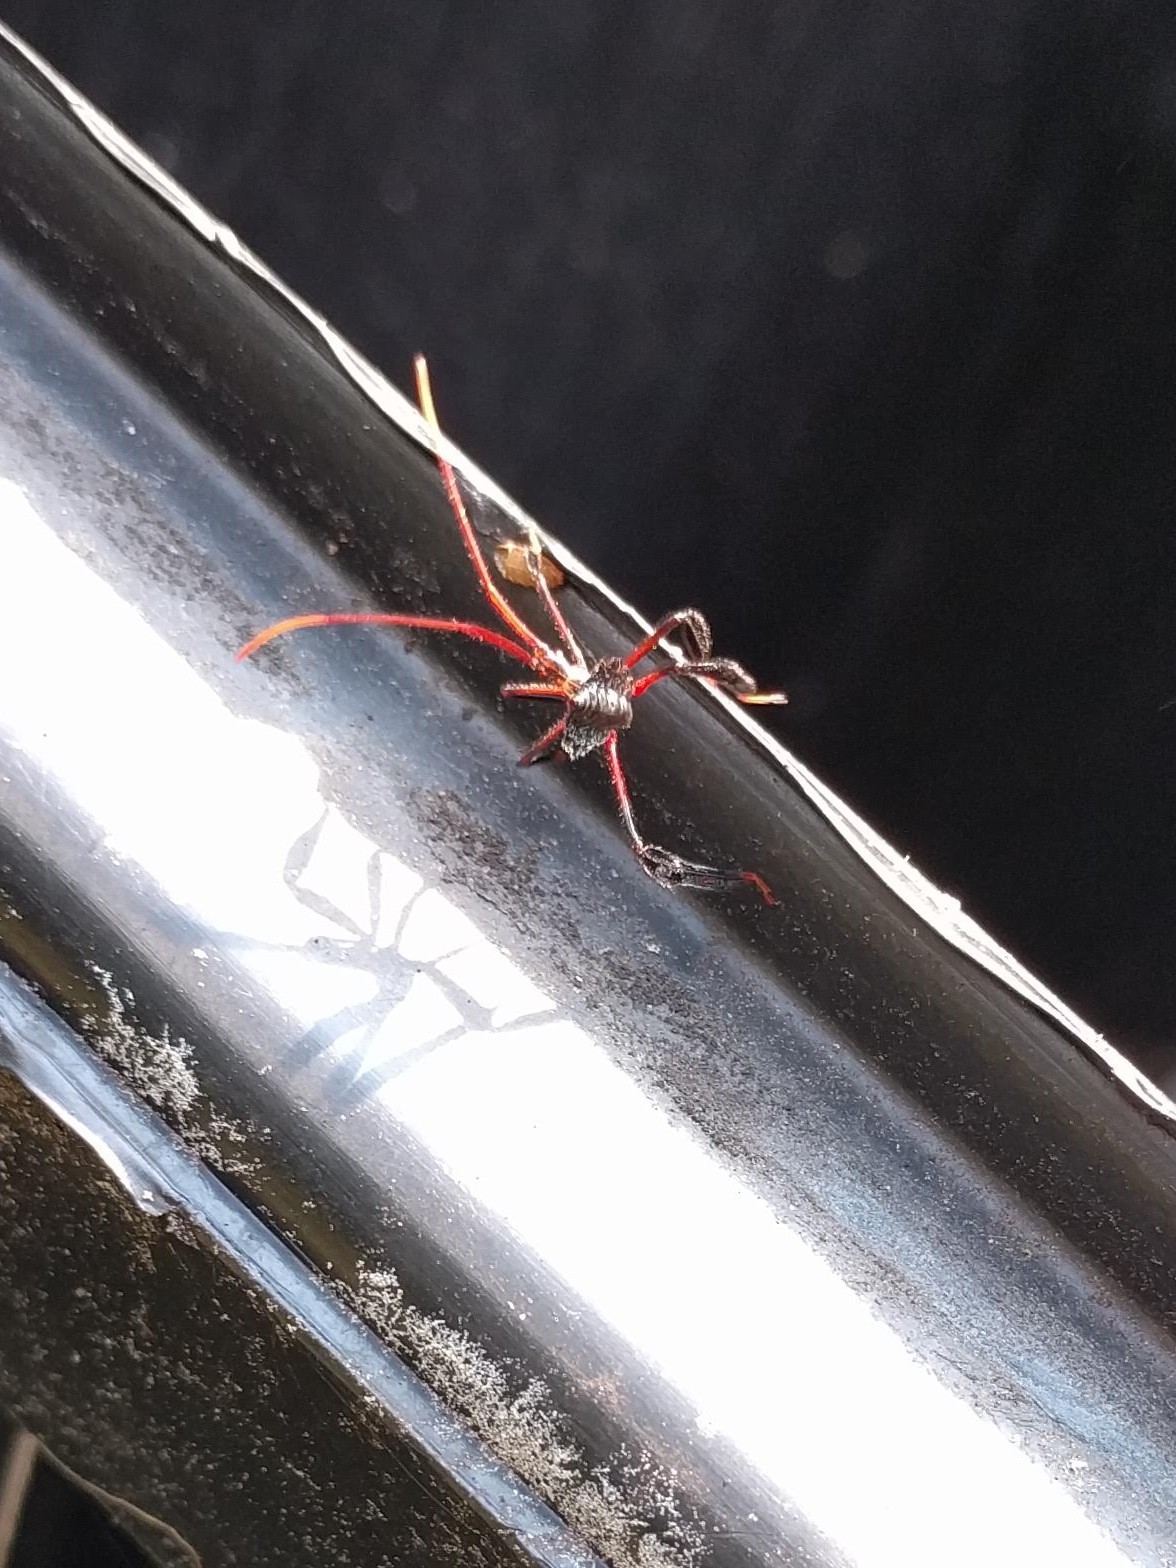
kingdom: Animalia
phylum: Arthropoda
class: Insecta
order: Hemiptera
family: Reduviidae
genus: Arilus
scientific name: Arilus cristatus
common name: North american wheel bug
